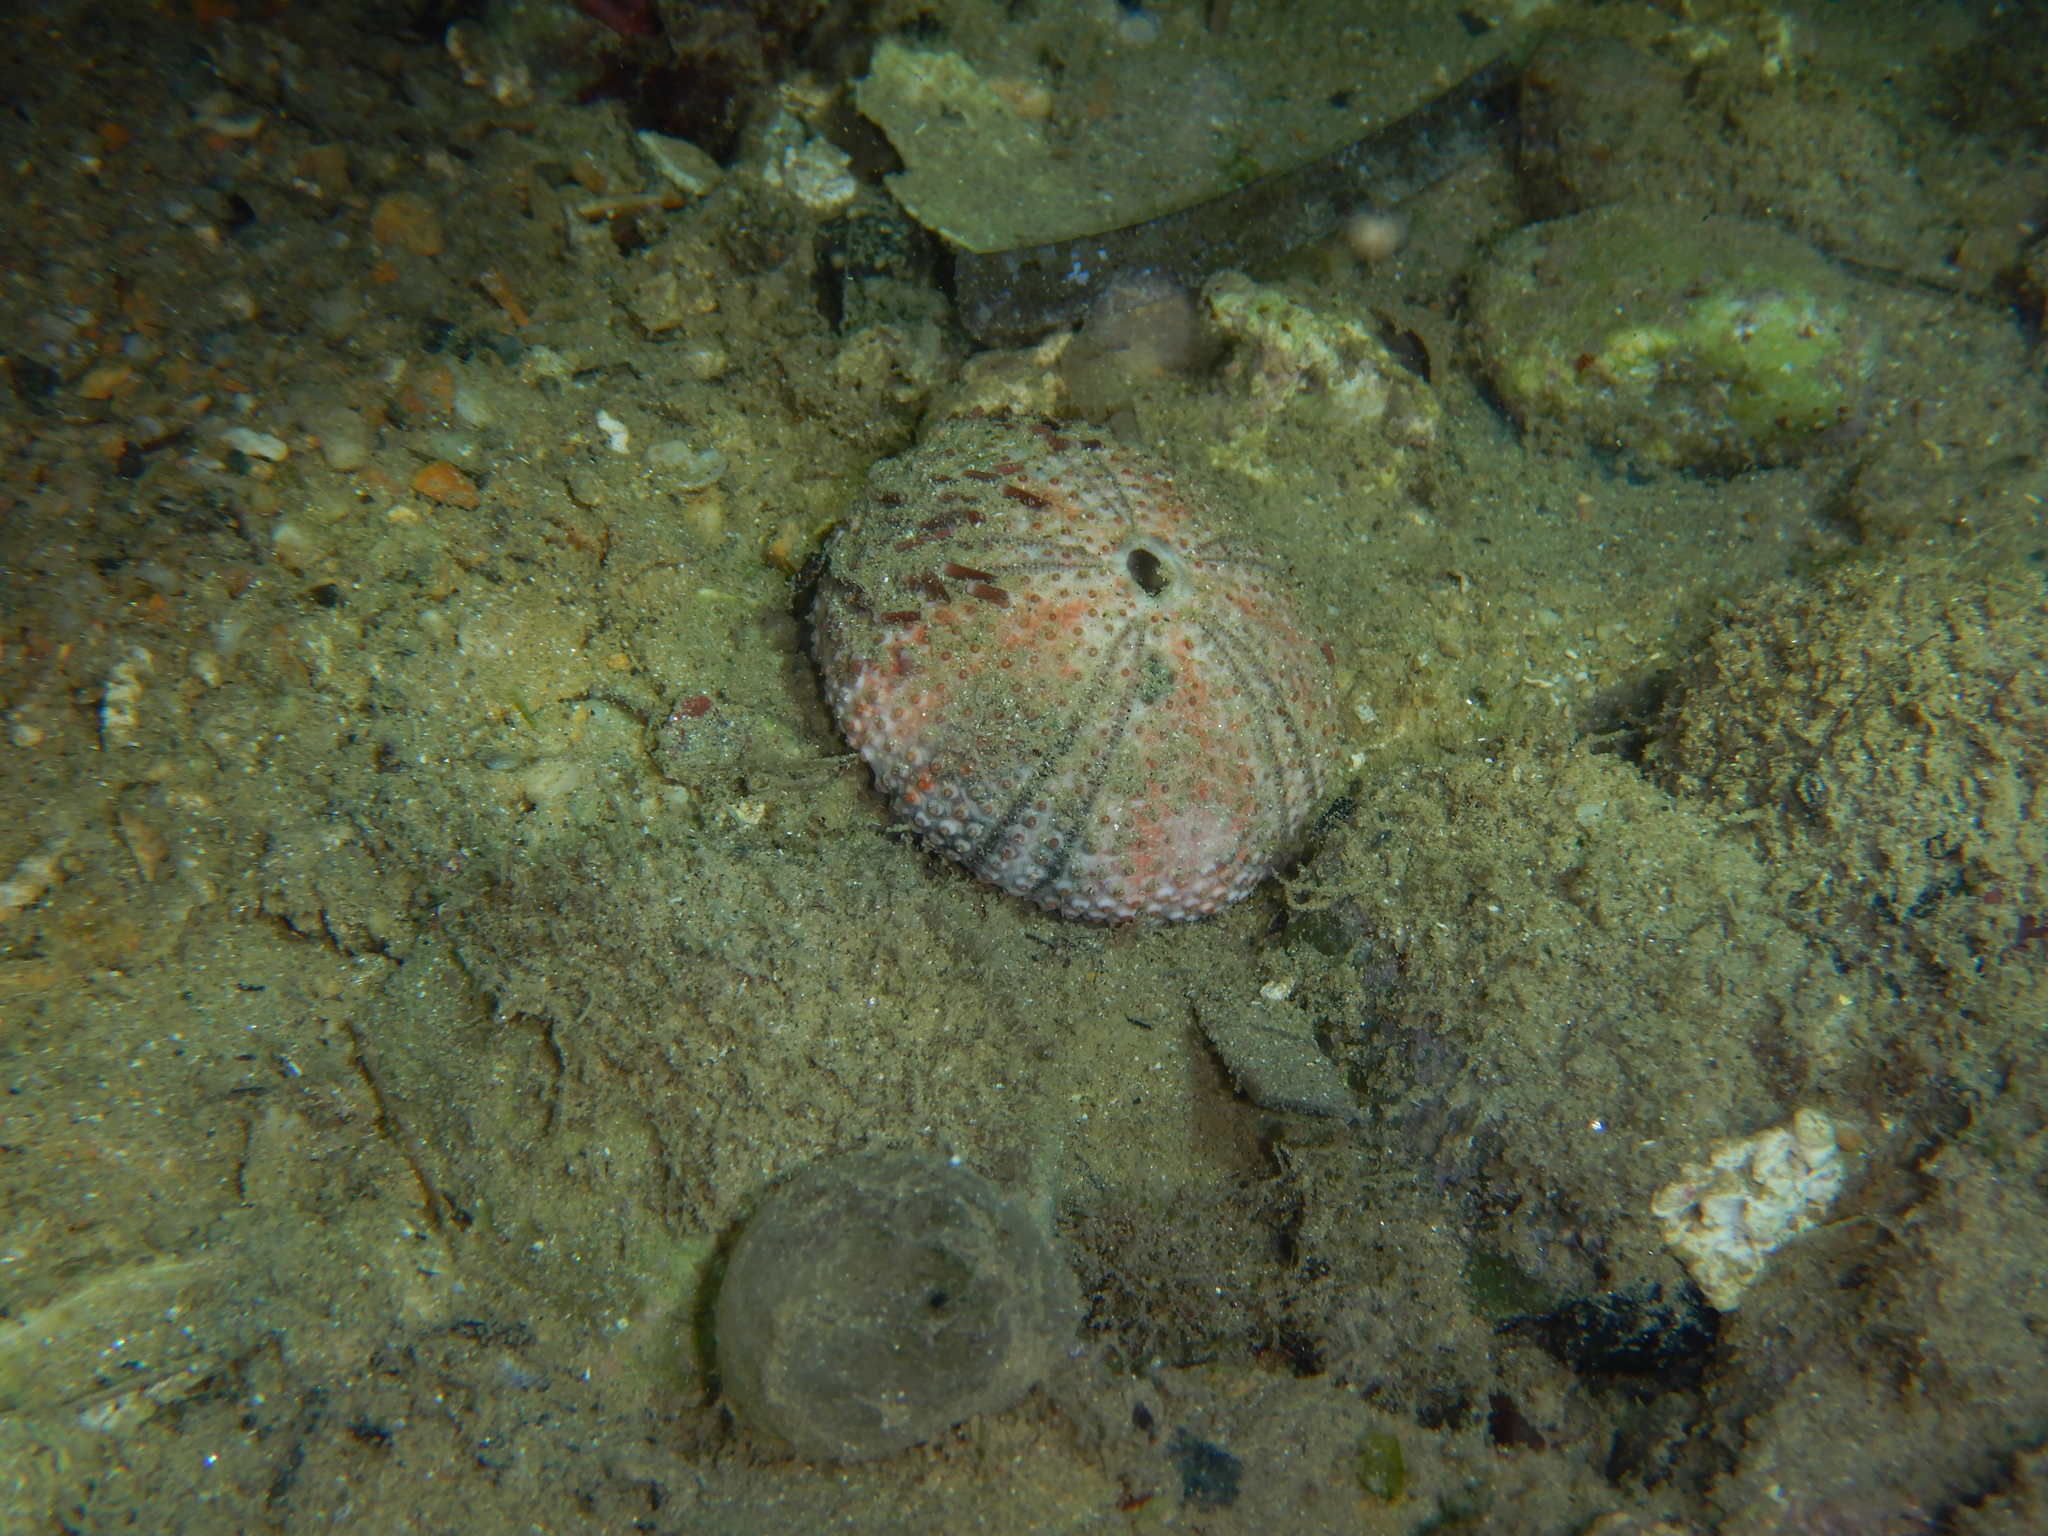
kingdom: Animalia
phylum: Echinodermata
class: Echinoidea
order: Arbacioida
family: Arbaciidae
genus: Arbacia
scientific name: Arbacia lixula
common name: Black sea urchin
